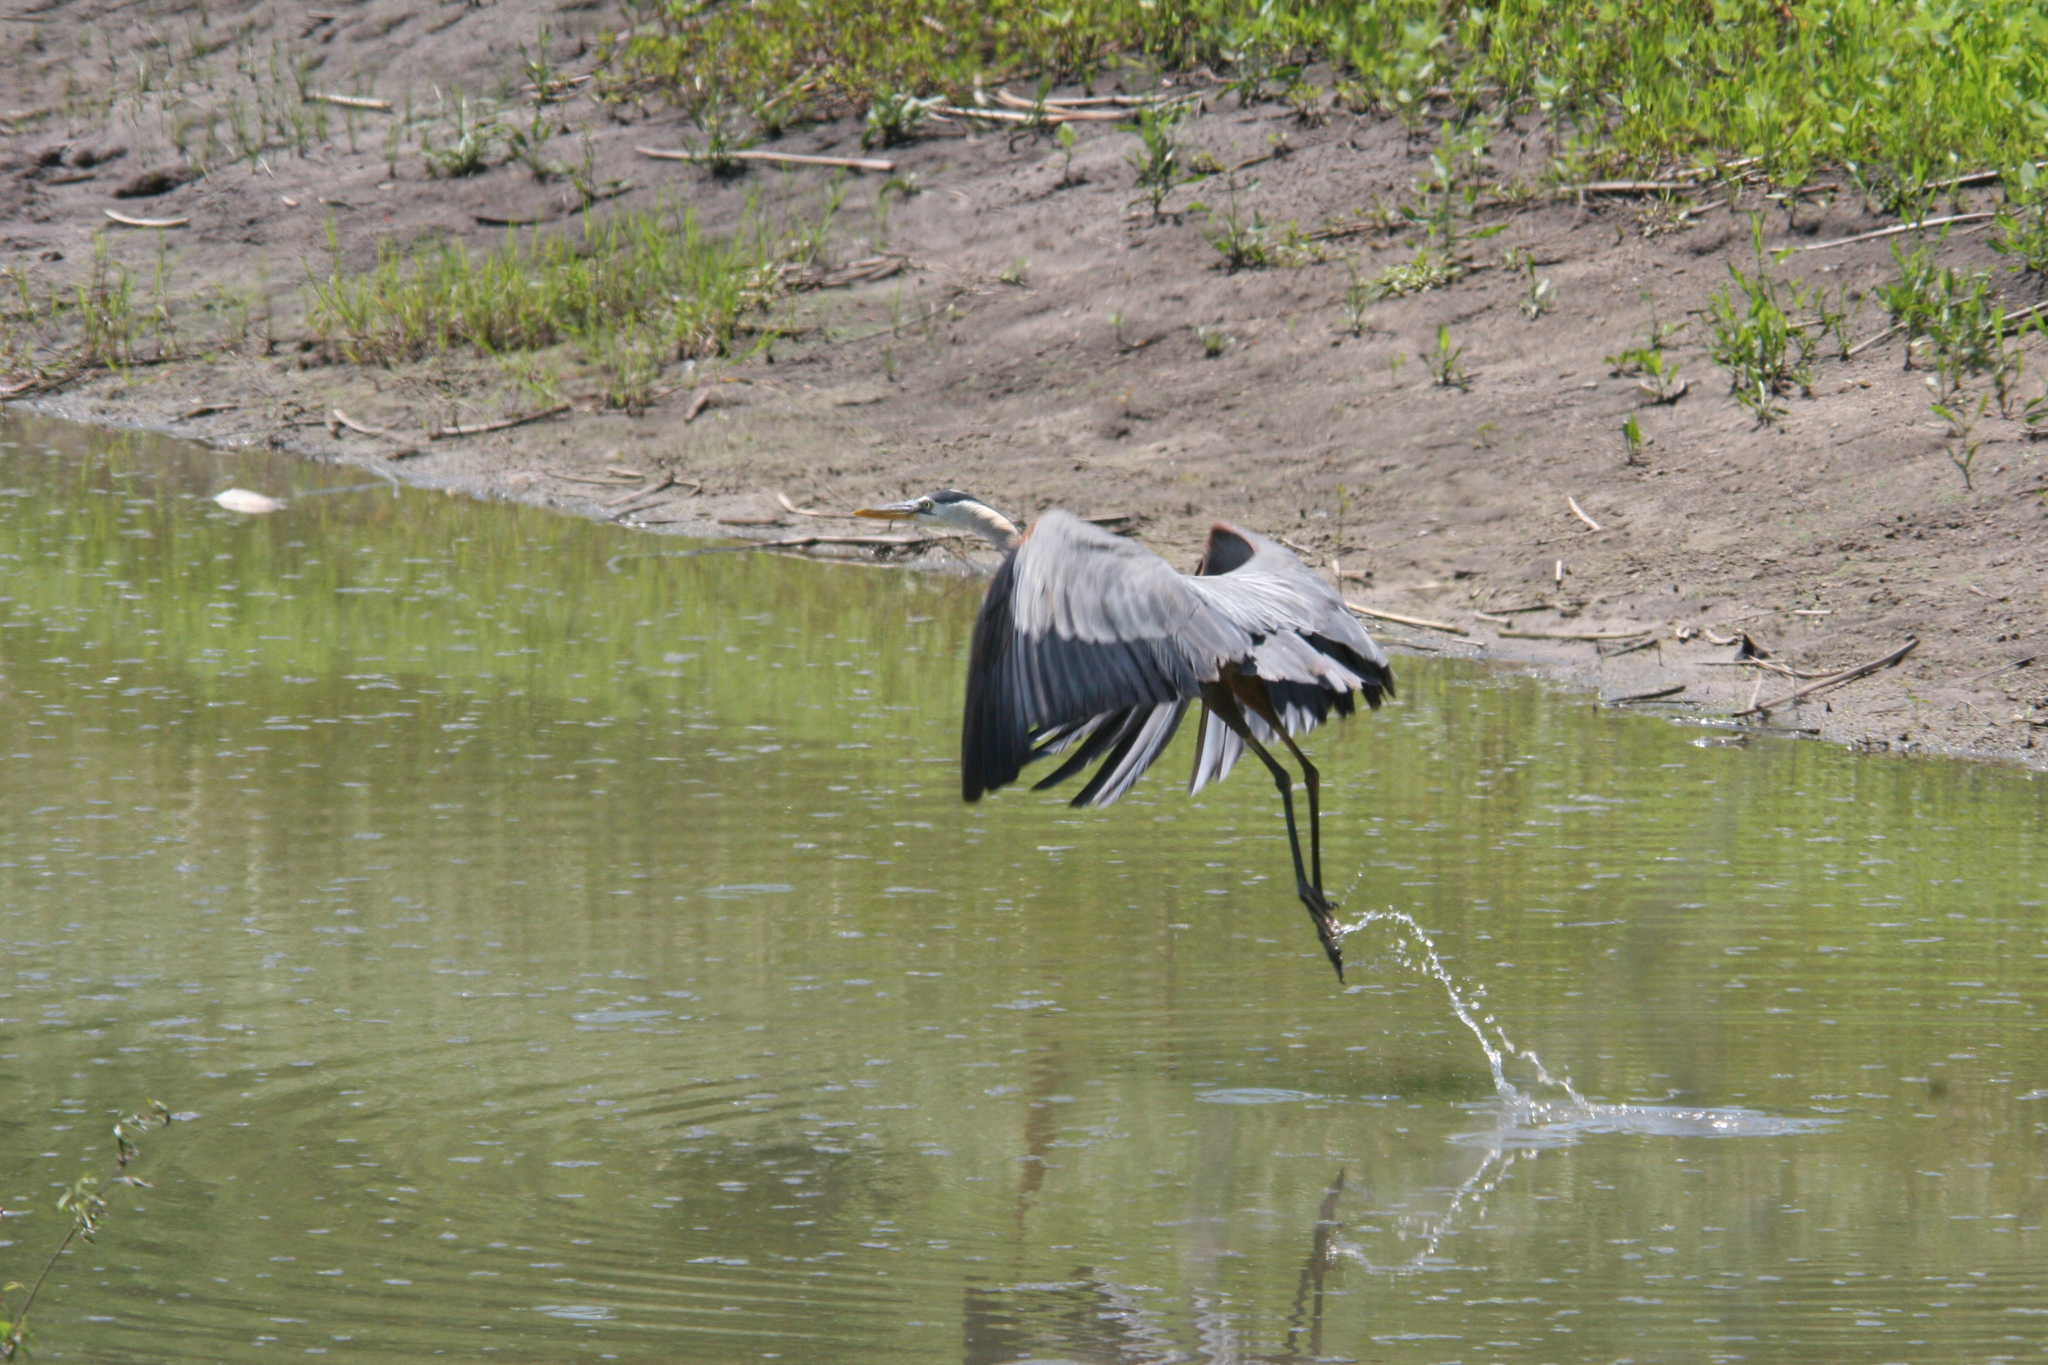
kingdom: Animalia
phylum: Chordata
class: Aves
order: Pelecaniformes
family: Ardeidae
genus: Ardea
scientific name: Ardea herodias
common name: Great blue heron
